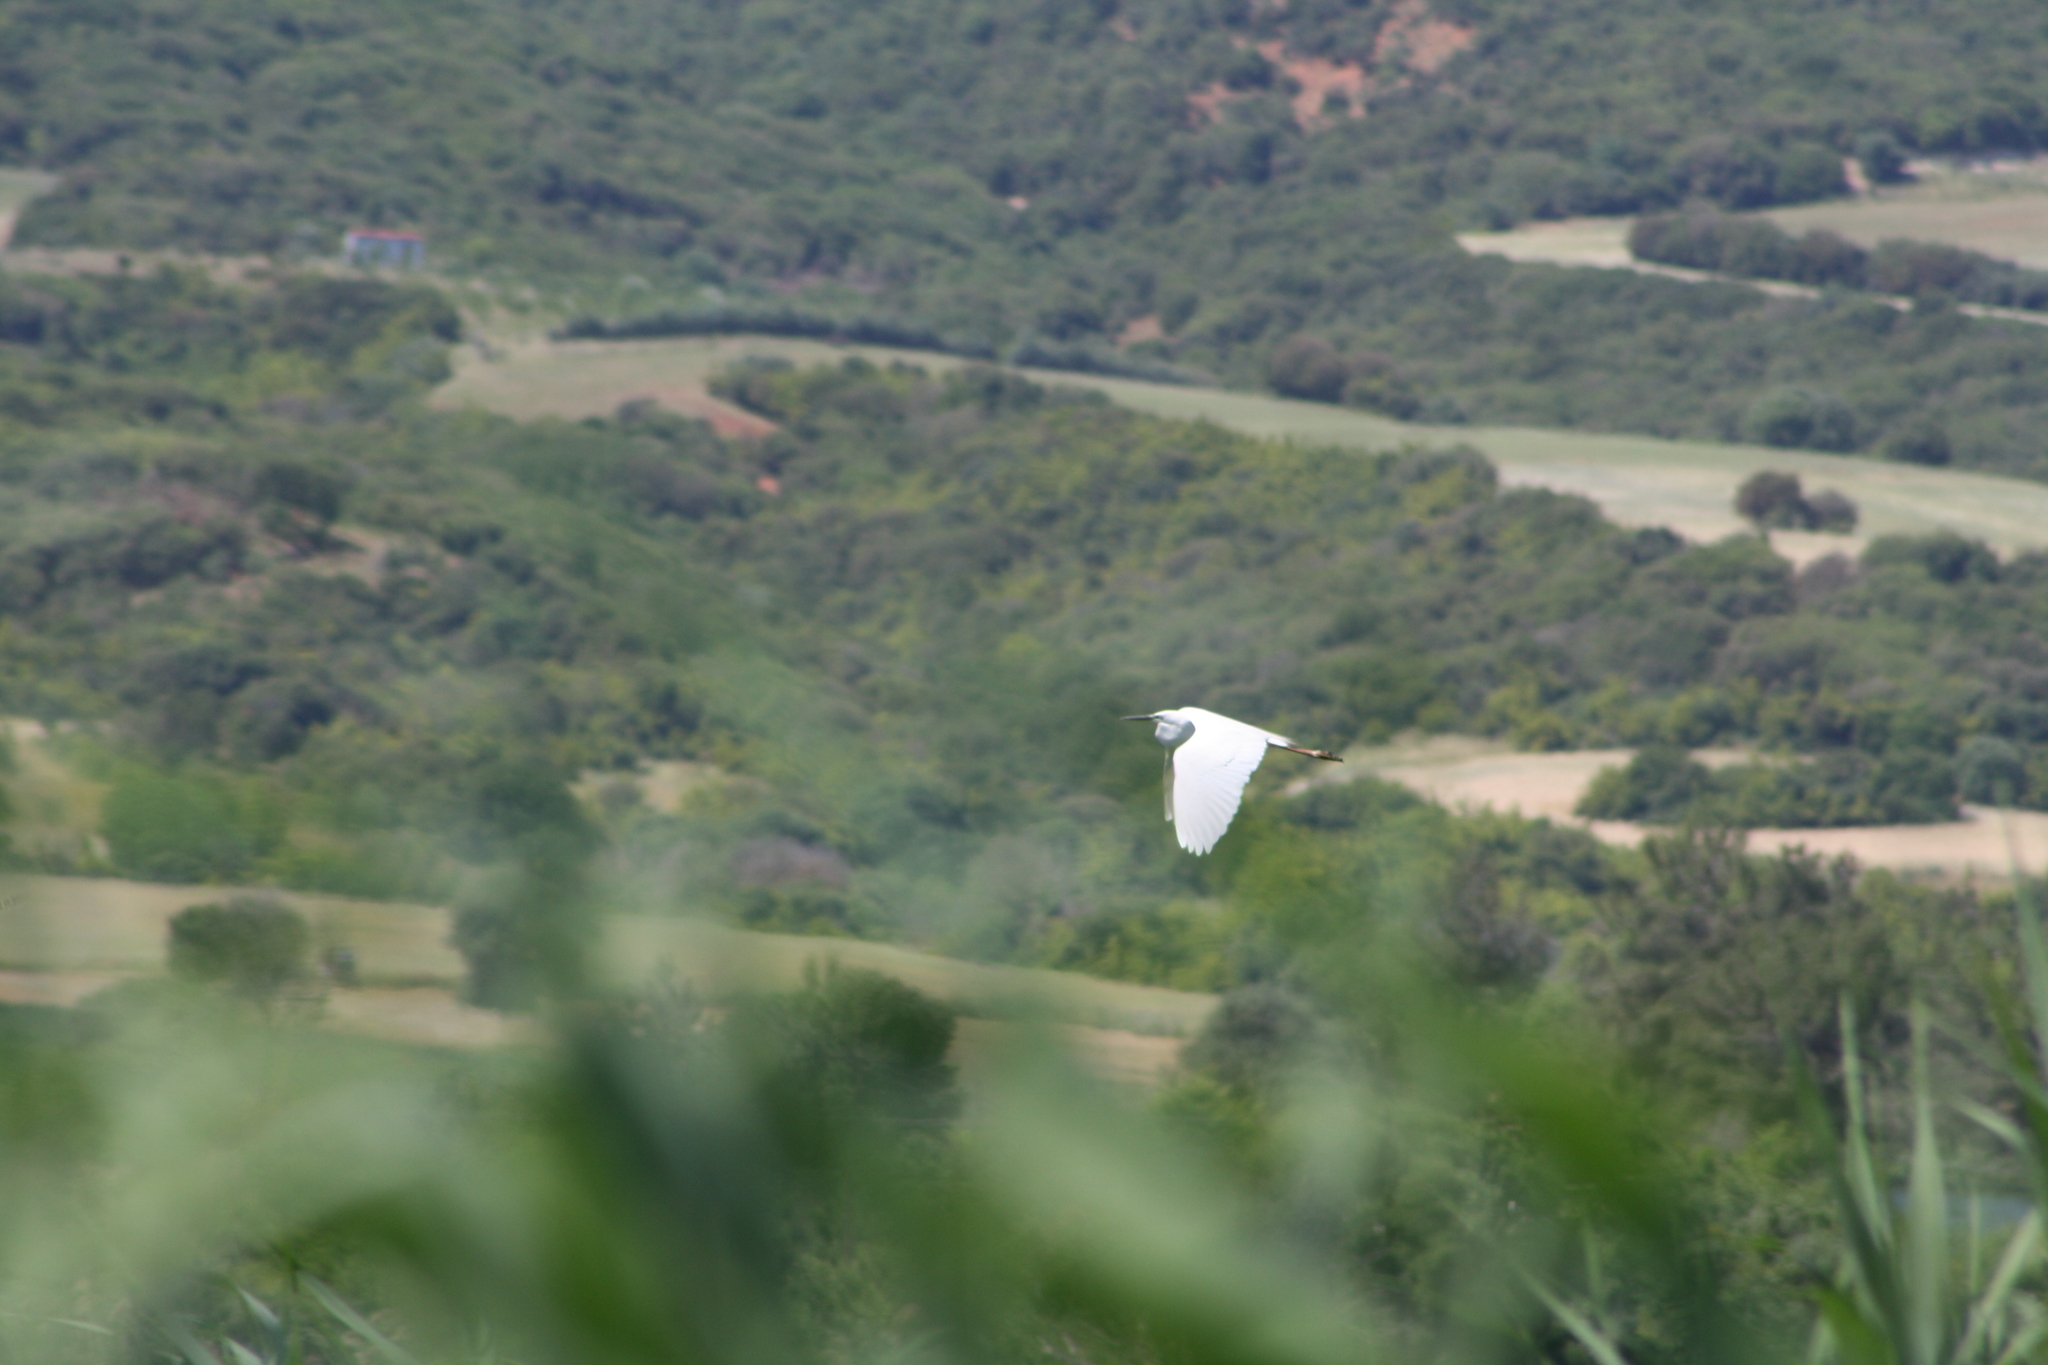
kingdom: Animalia
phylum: Chordata
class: Aves
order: Pelecaniformes
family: Ardeidae
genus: Egretta
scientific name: Egretta garzetta
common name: Little egret
